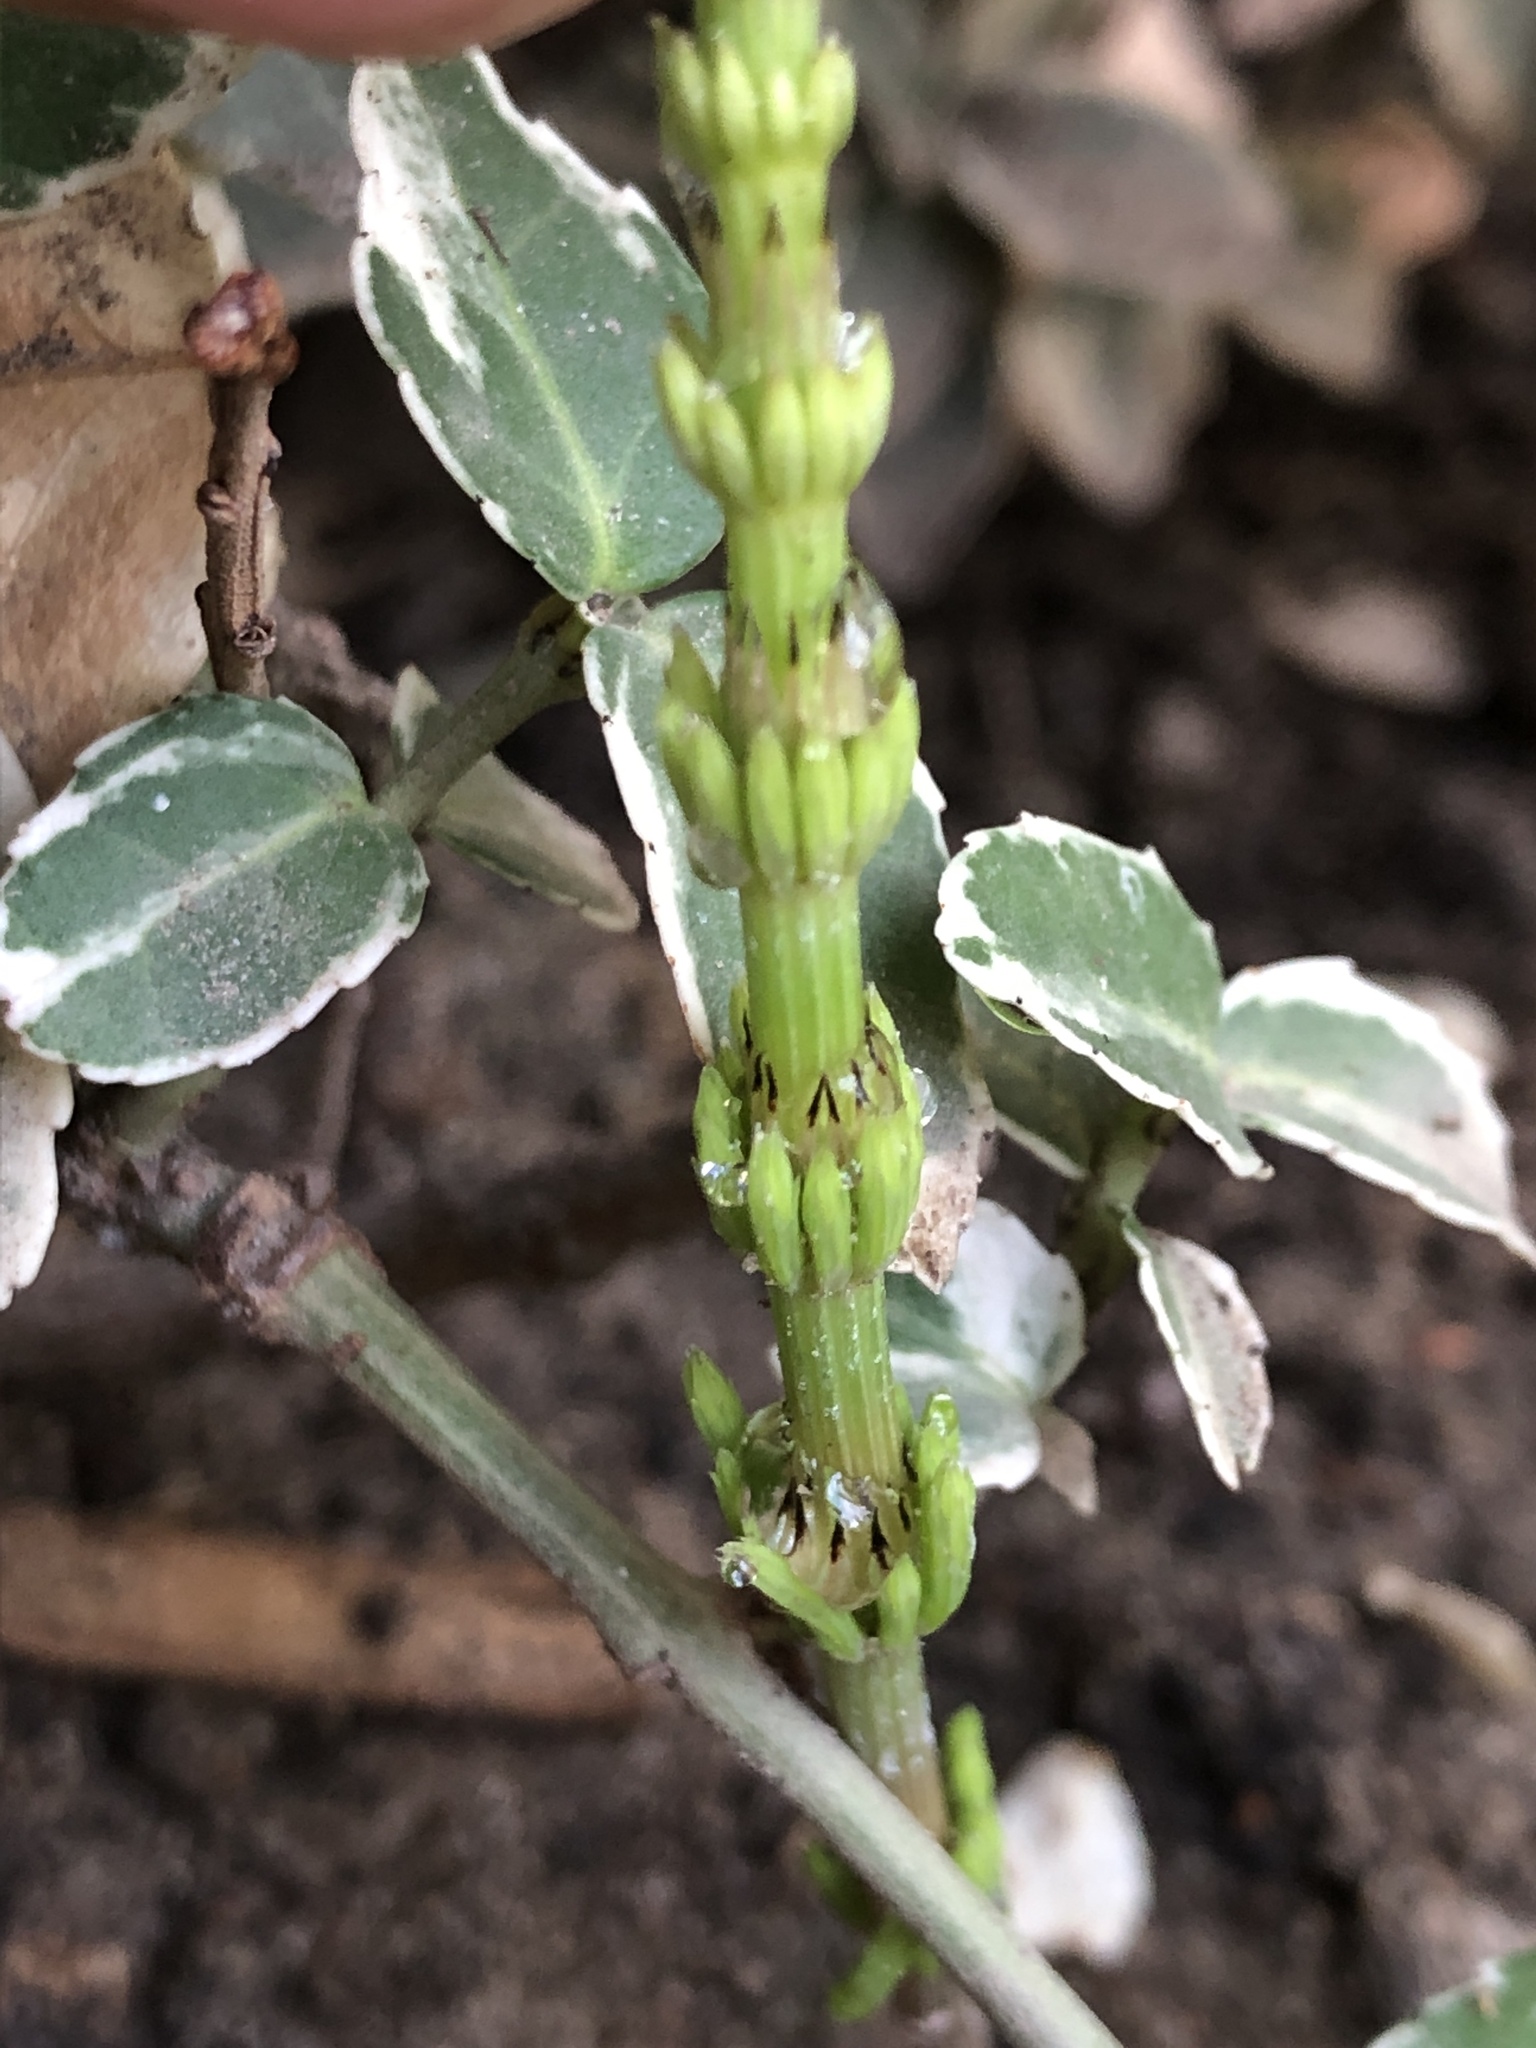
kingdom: Plantae
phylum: Tracheophyta
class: Polypodiopsida
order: Equisetales
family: Equisetaceae
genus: Equisetum
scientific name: Equisetum arvense
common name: Field horsetail
